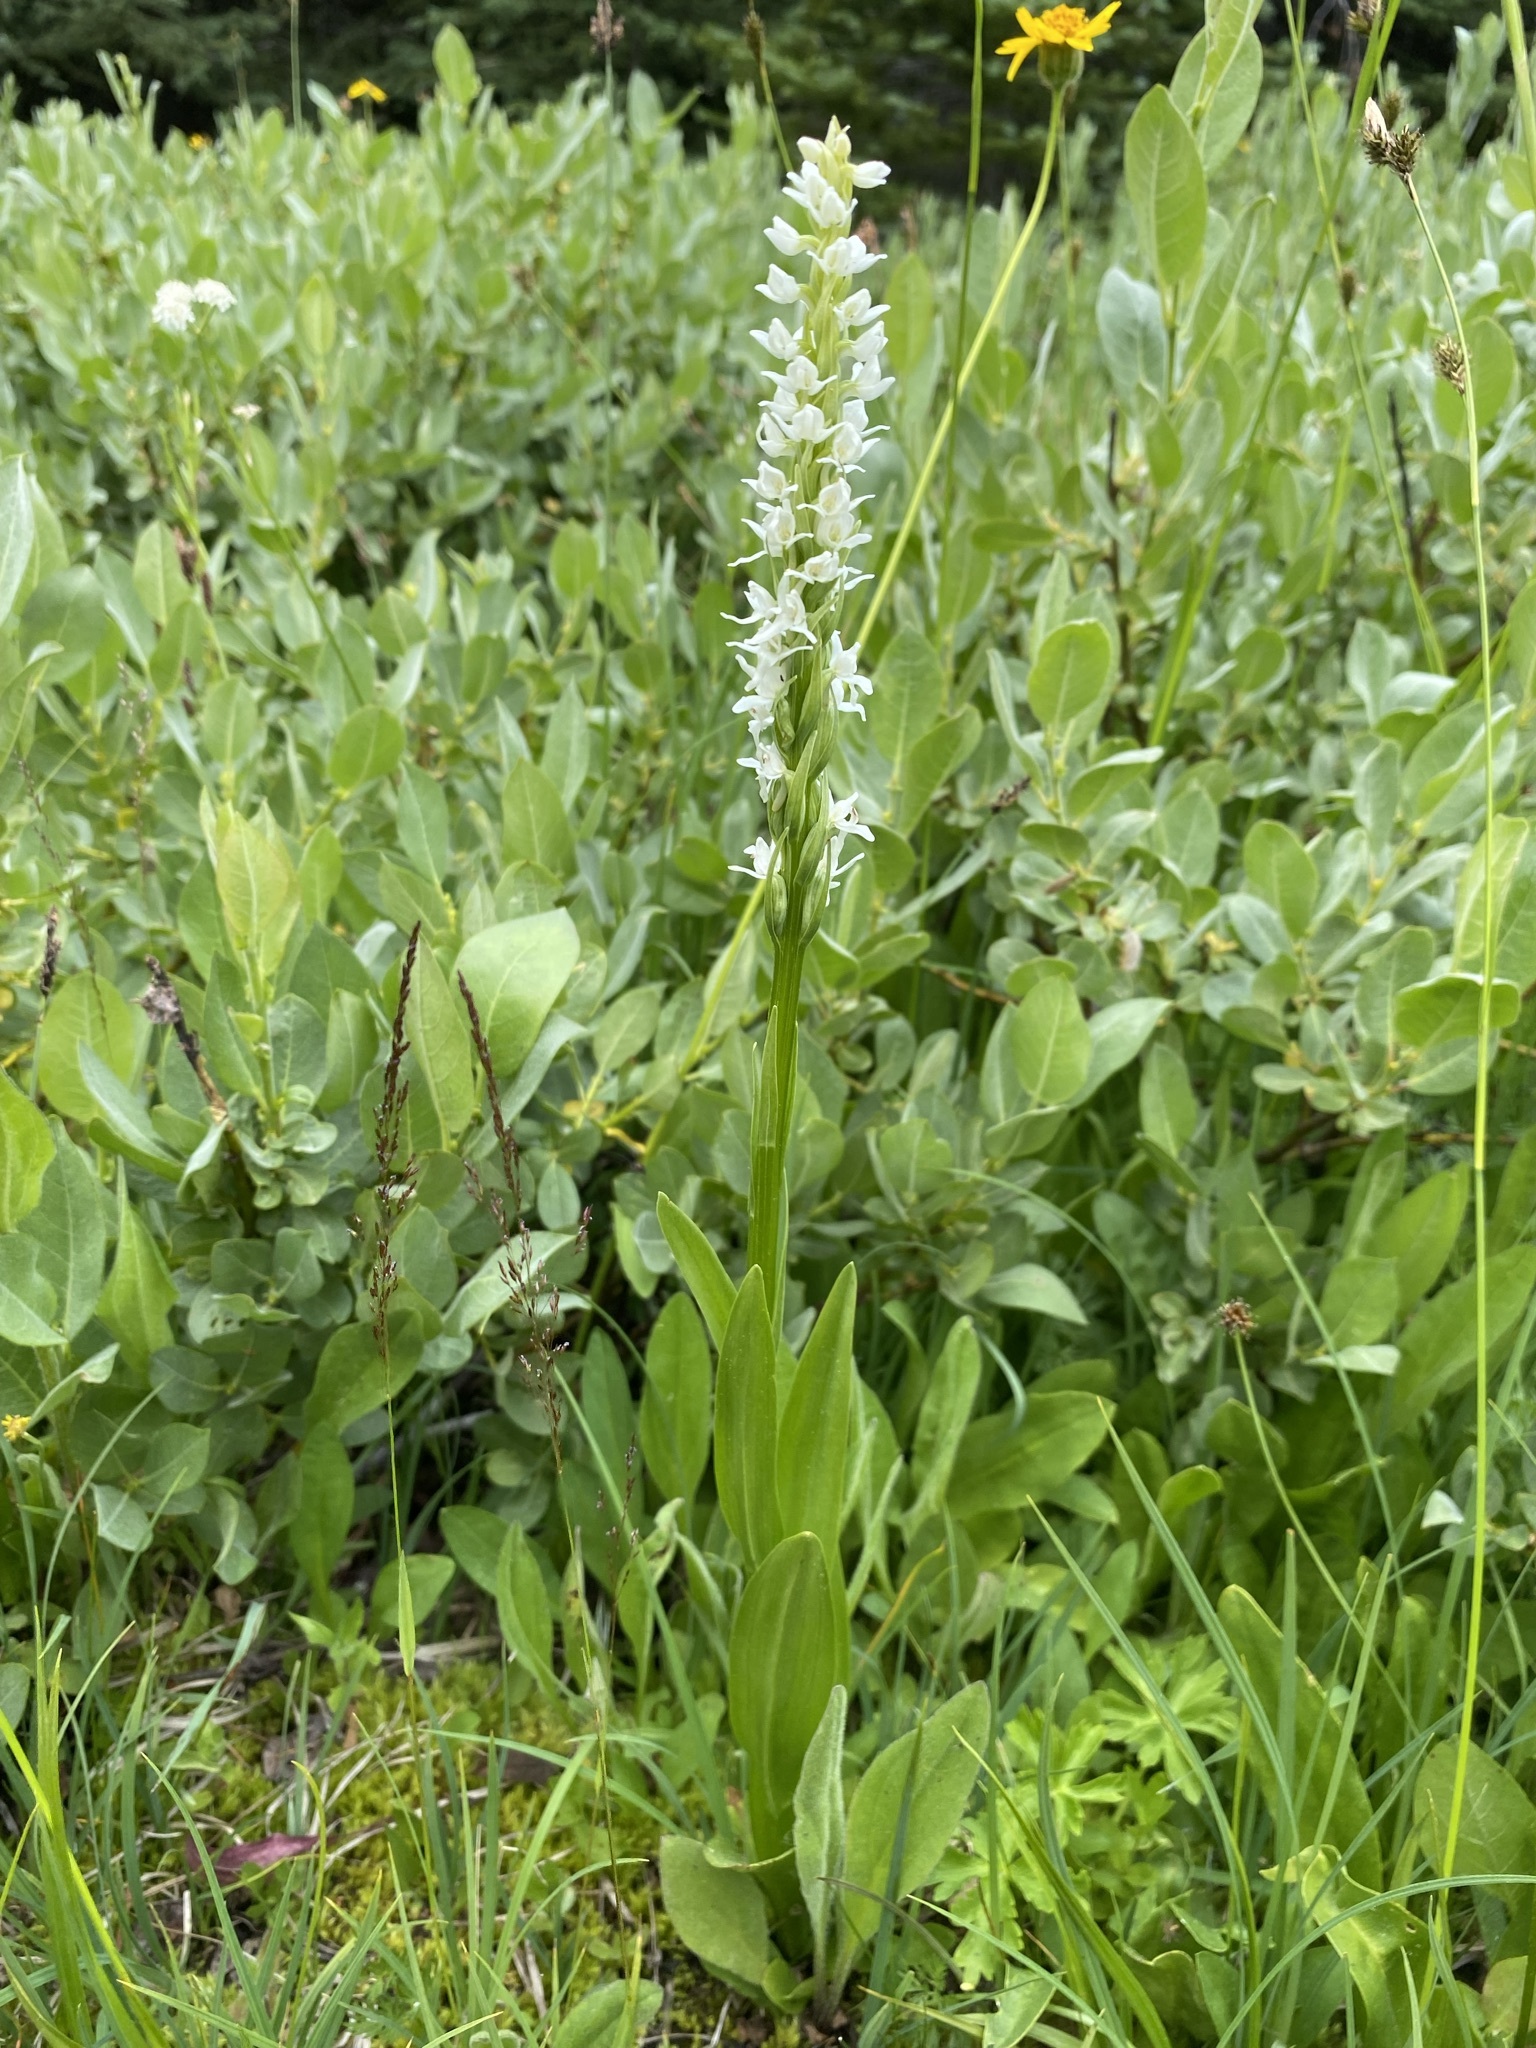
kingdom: Plantae
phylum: Tracheophyta
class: Liliopsida
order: Asparagales
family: Orchidaceae
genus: Platanthera
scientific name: Platanthera dilatata
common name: Bog candles
